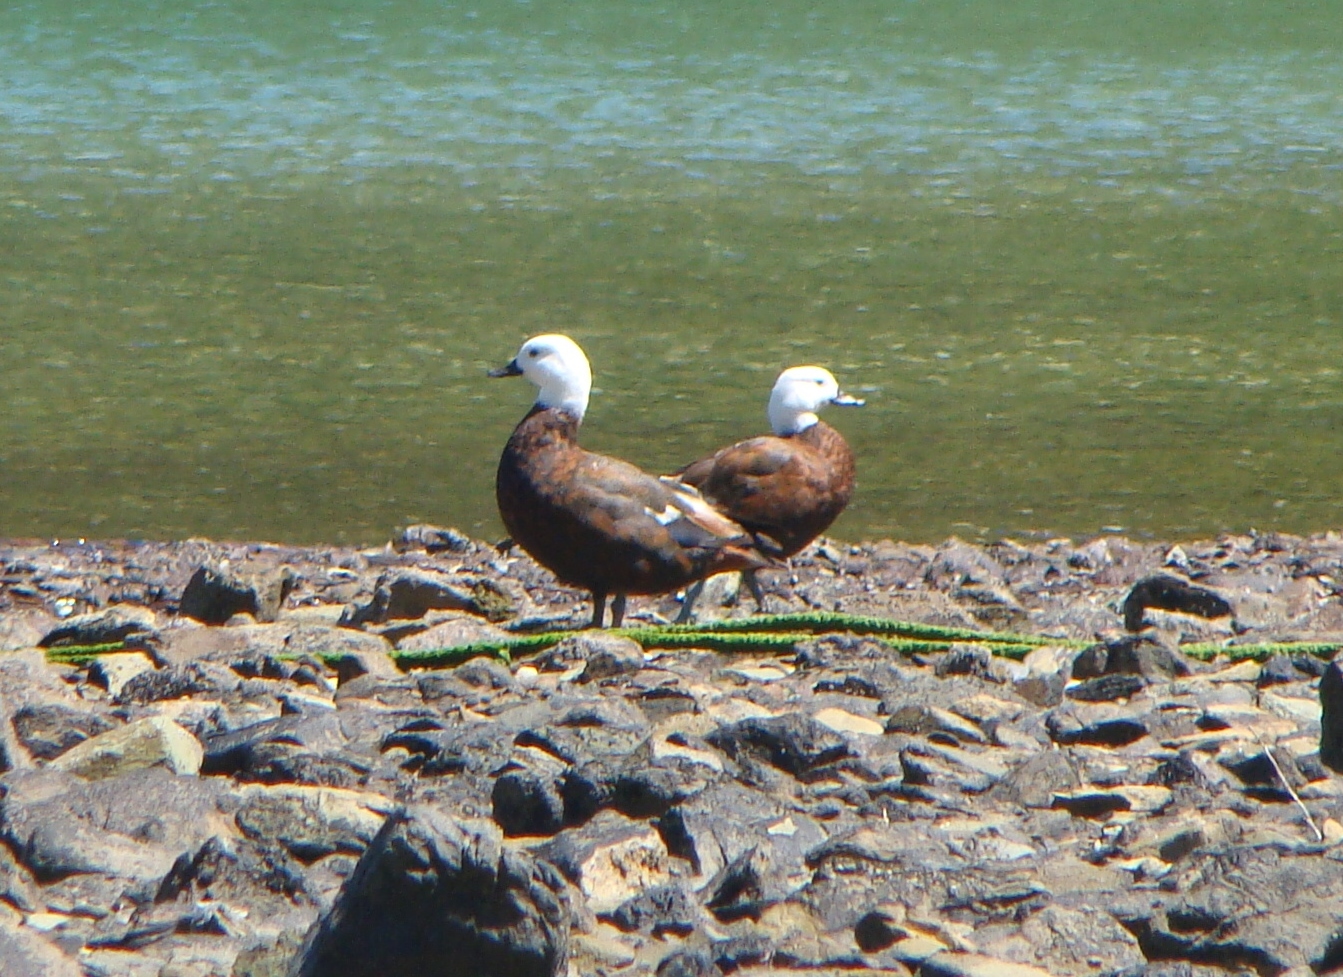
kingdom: Animalia
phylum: Chordata
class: Aves
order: Anseriformes
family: Anatidae
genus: Tadorna
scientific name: Tadorna variegata
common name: Paradise shelduck
